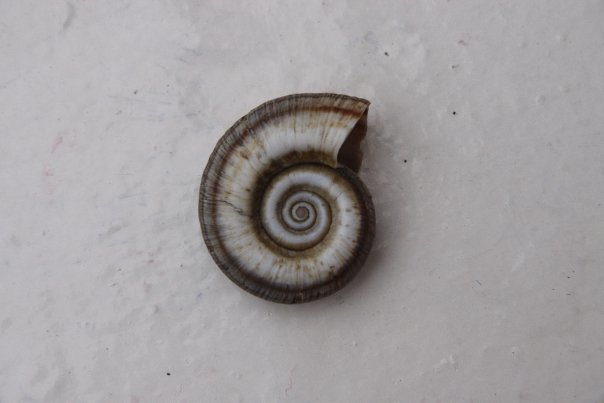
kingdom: Animalia
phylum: Mollusca
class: Gastropoda
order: Architaenioglossa
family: Ampullariidae
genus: Marisa
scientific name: Marisa cornuarietis
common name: Giant ramshorn snail
